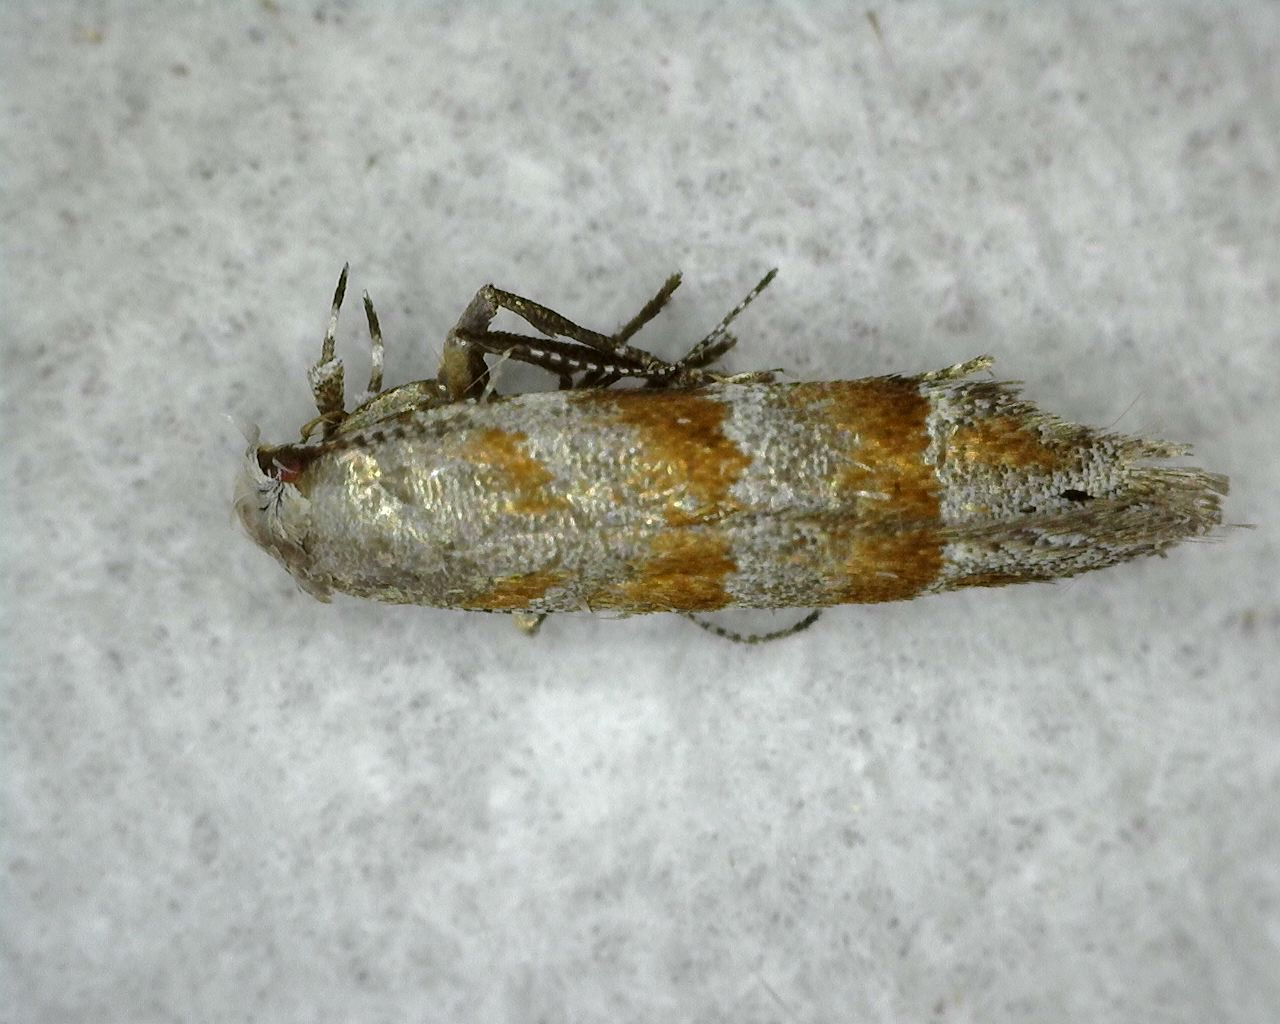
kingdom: Animalia
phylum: Arthropoda
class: Insecta
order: Lepidoptera
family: Gelechiidae
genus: Battaristis
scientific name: Battaristis vittella
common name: Orange stripe-backed moth
